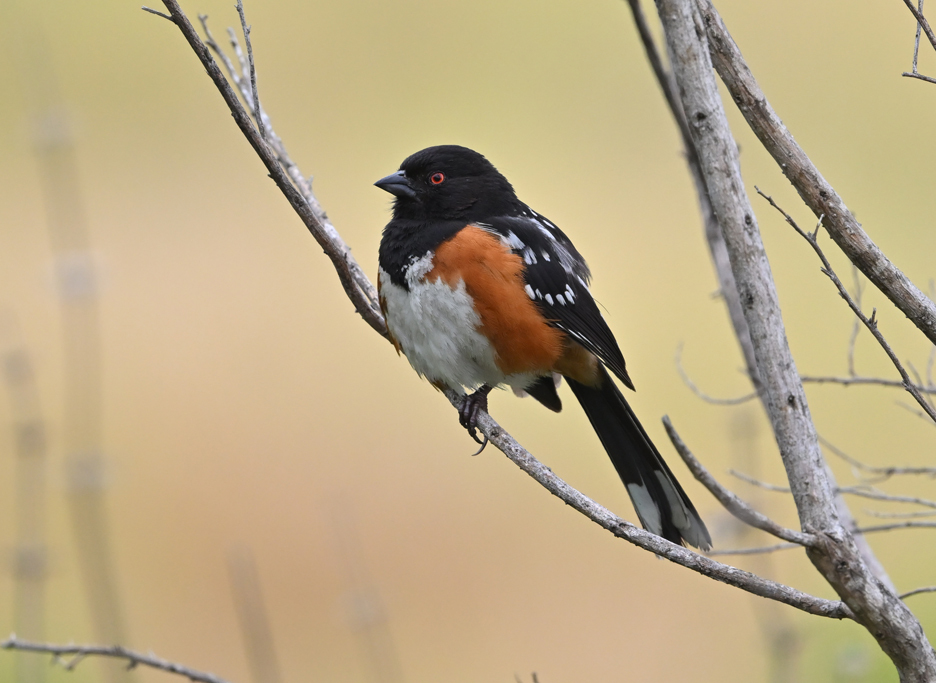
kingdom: Animalia
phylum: Chordata
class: Aves
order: Passeriformes
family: Passerellidae
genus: Pipilo
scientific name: Pipilo maculatus
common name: Spotted towhee
